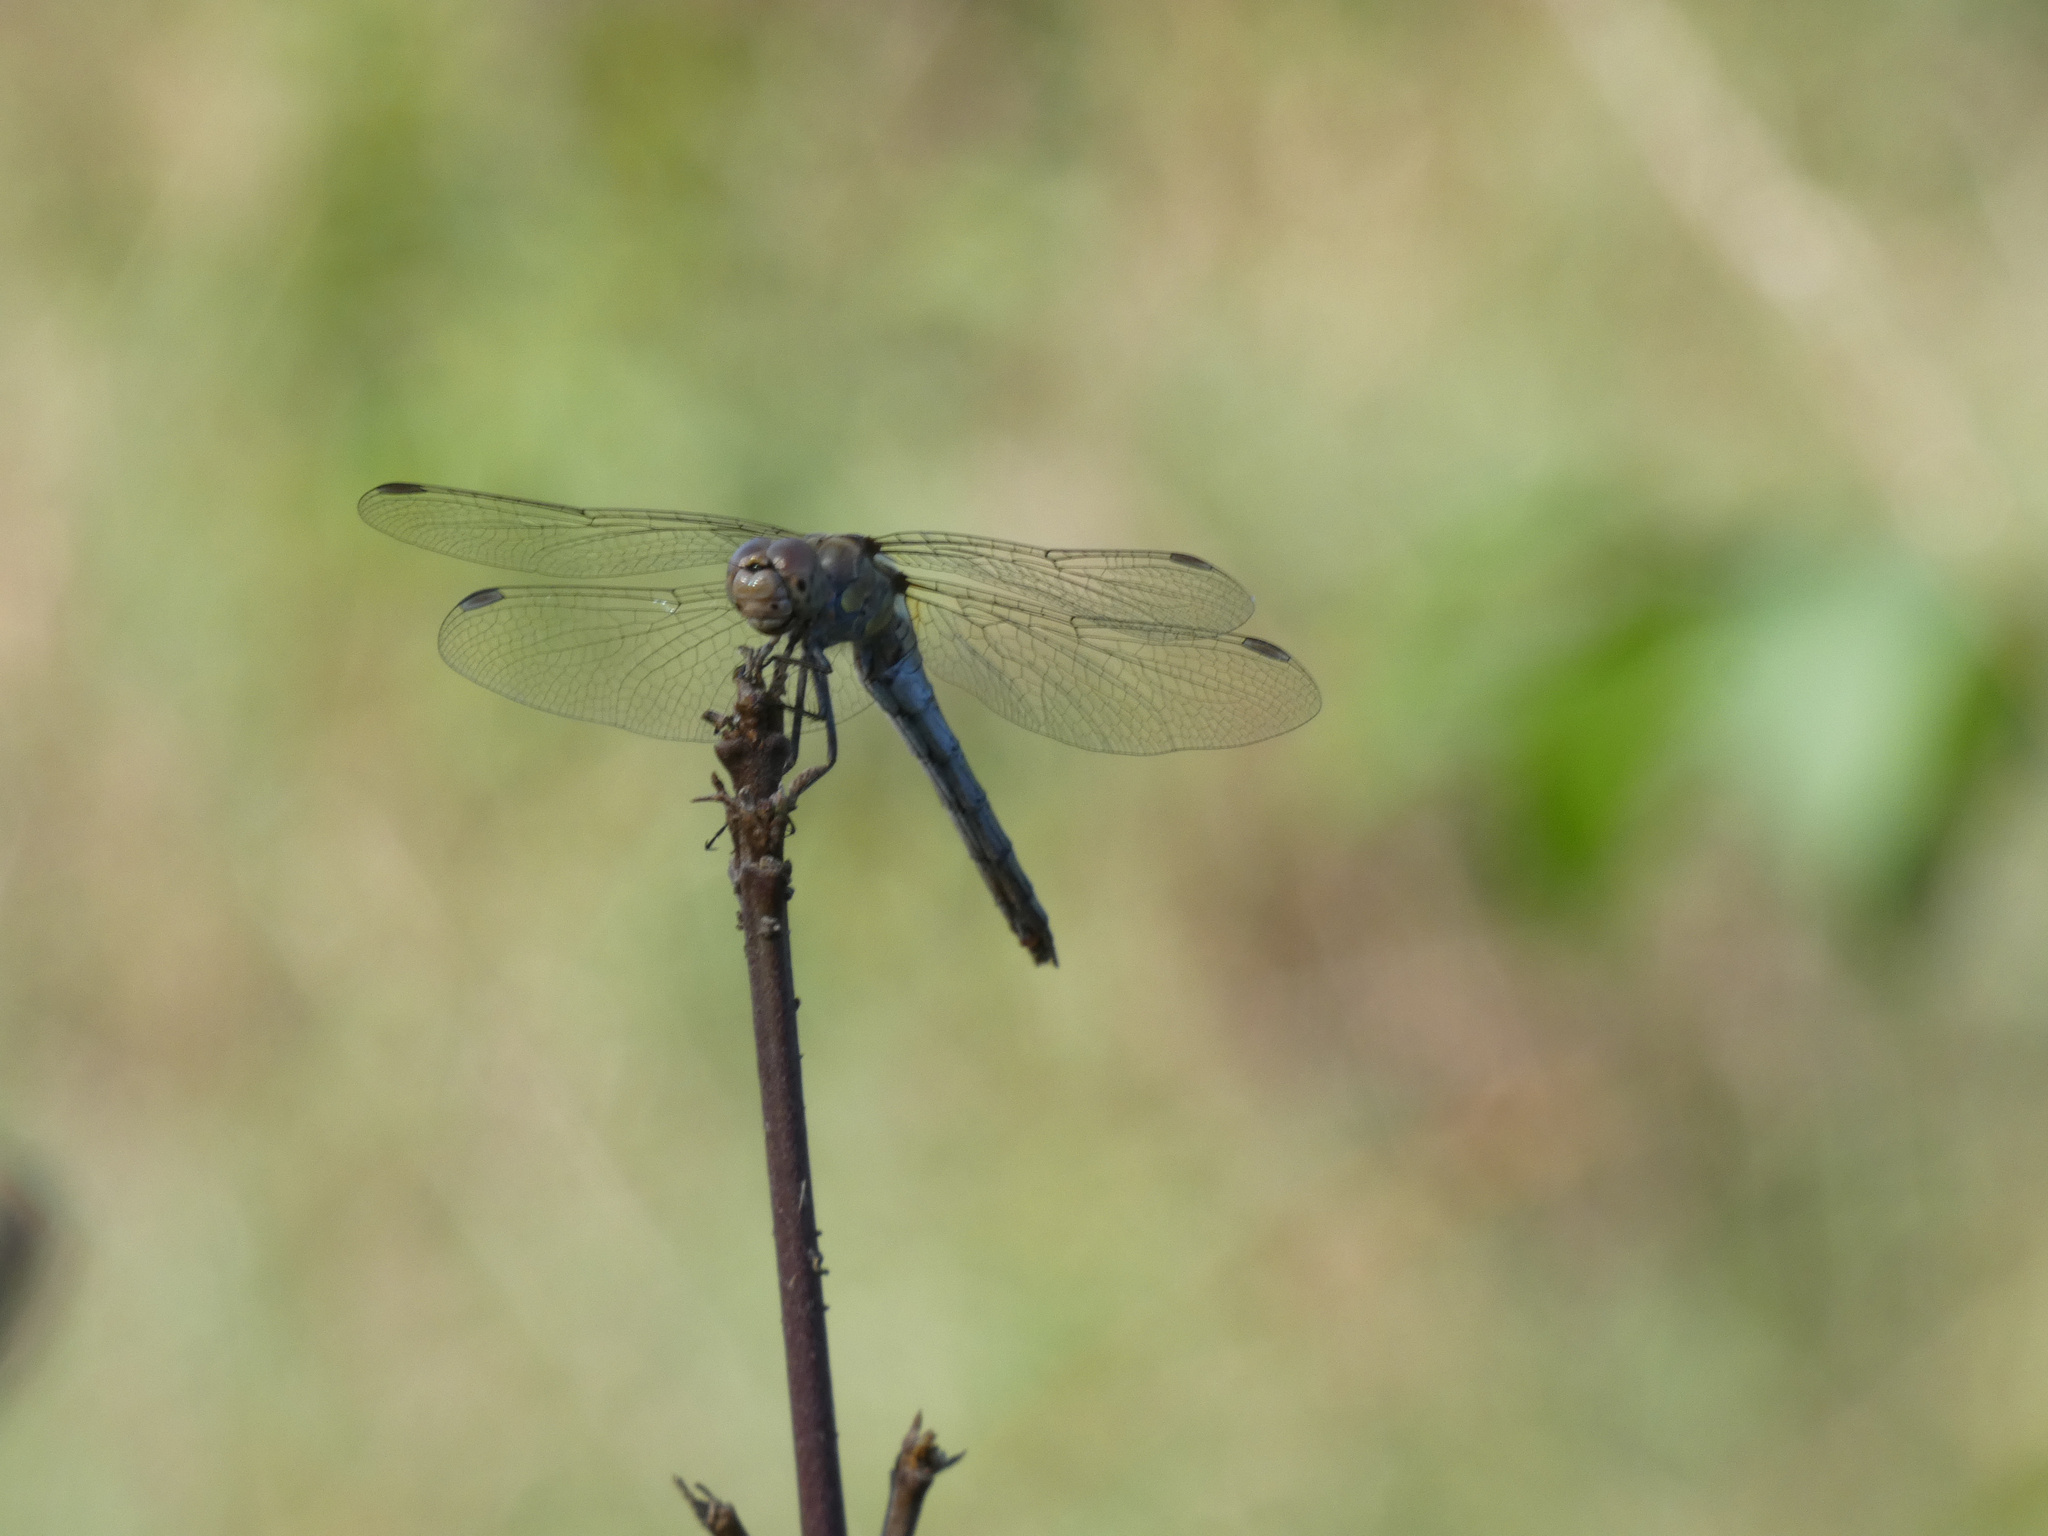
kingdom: Animalia
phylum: Arthropoda
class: Insecta
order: Odonata
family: Libellulidae
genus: Sympetrum
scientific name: Sympetrum striolatum
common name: Common darter
